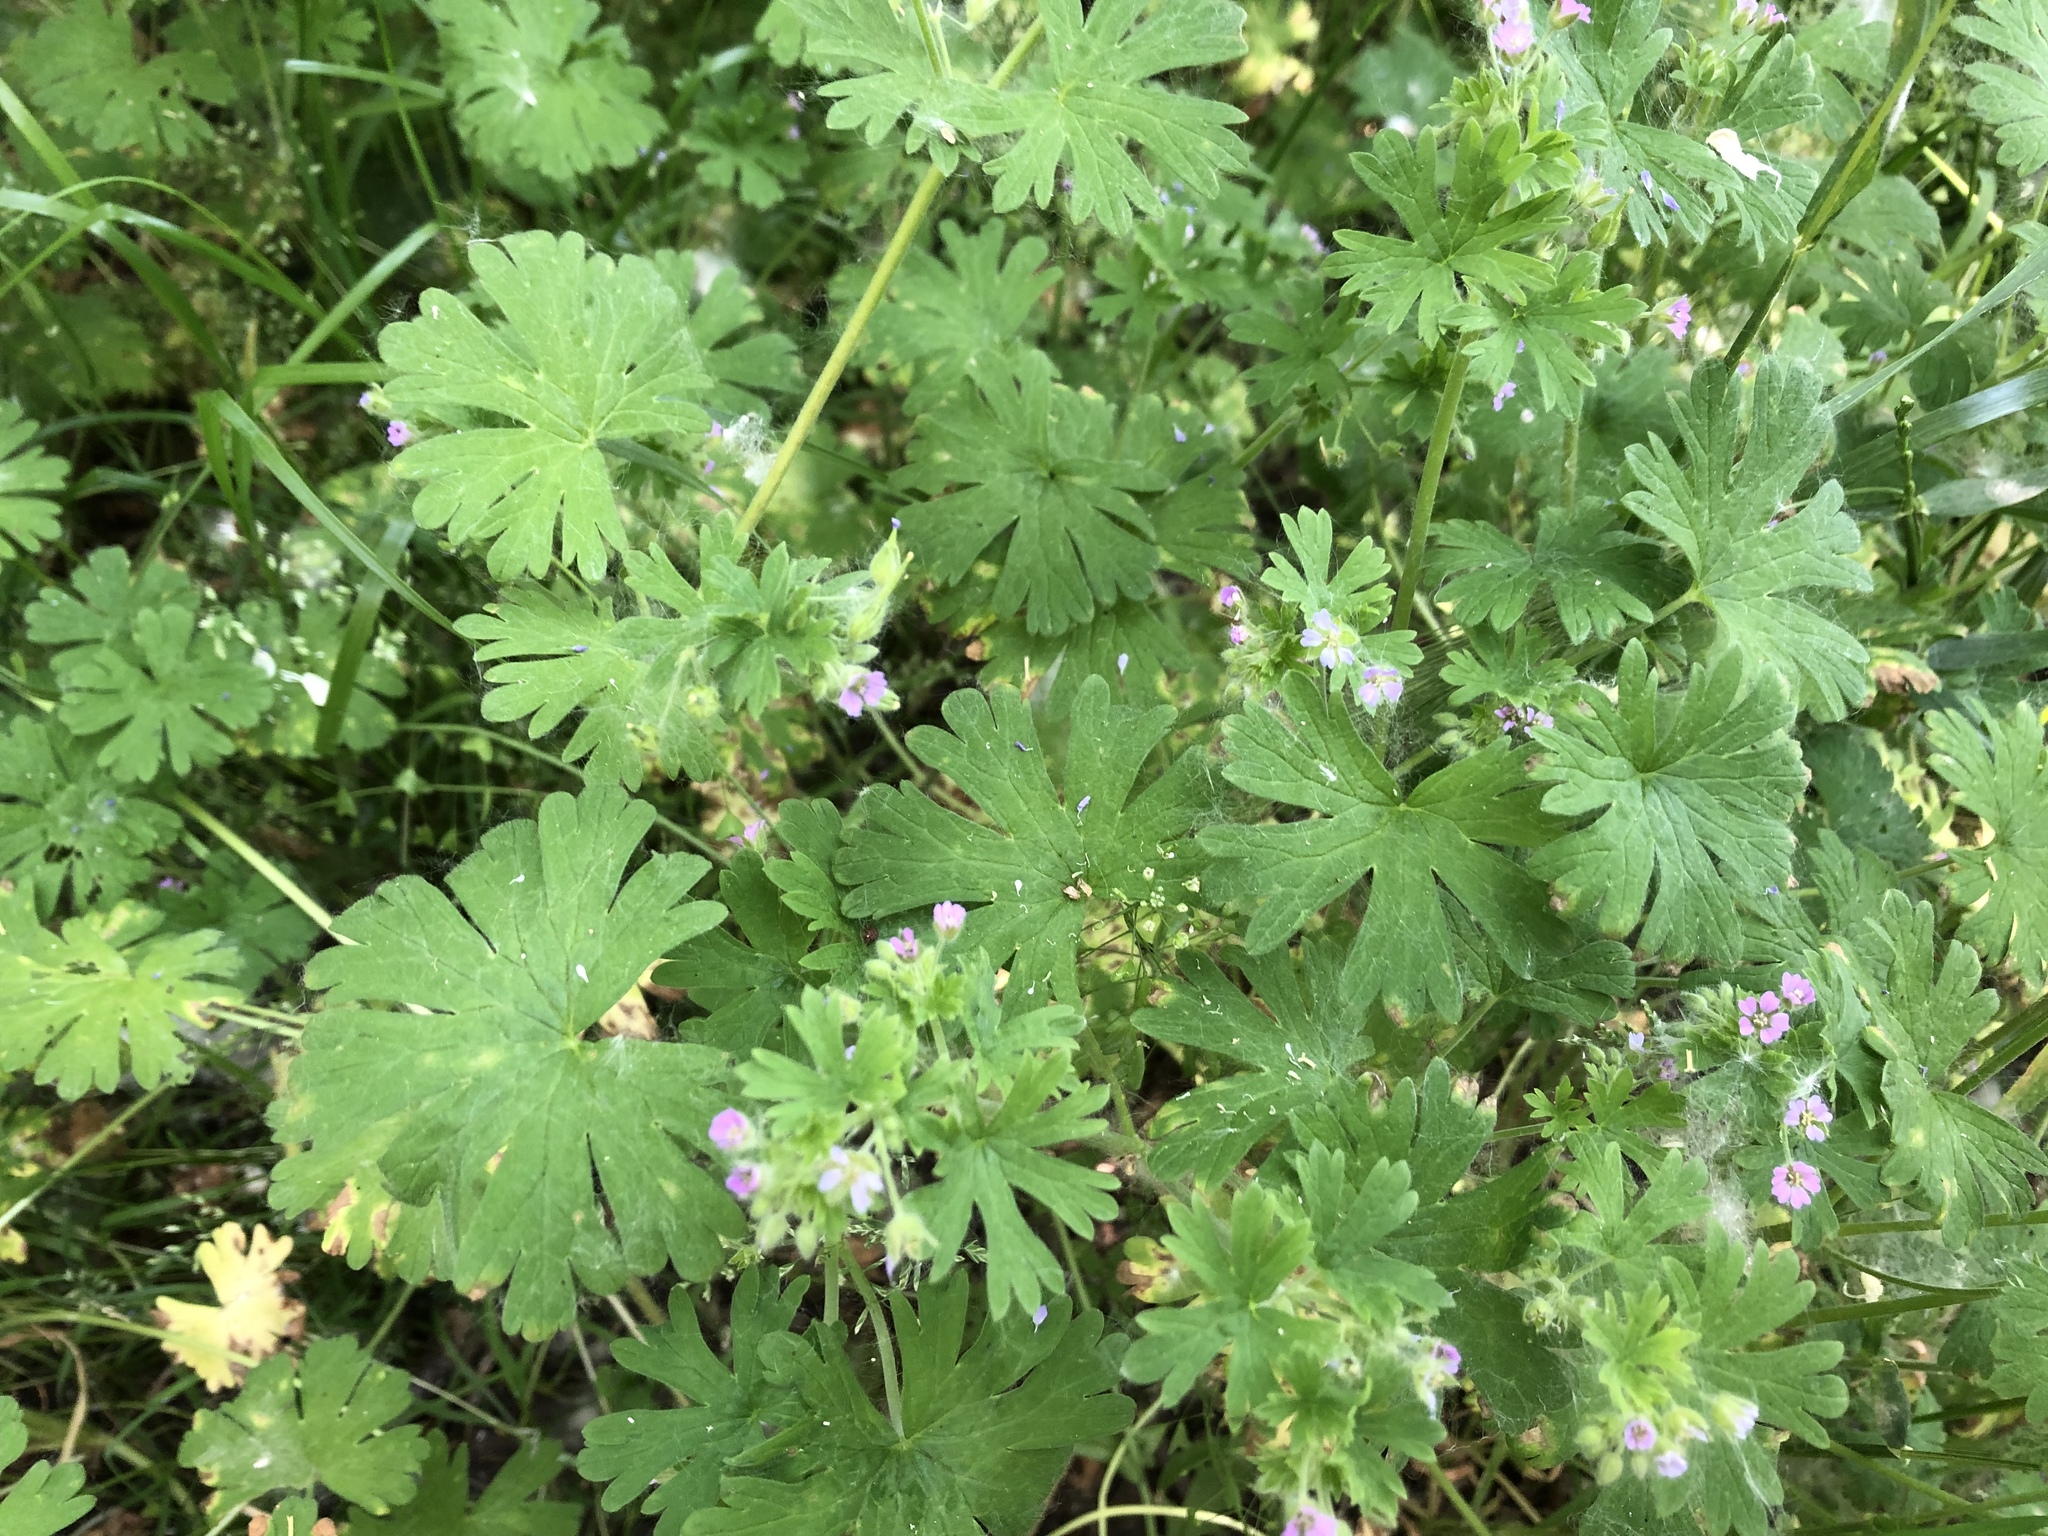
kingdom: Plantae
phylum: Tracheophyta
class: Magnoliopsida
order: Geraniales
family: Geraniaceae
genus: Geranium
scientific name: Geranium pusillum
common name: Small geranium
